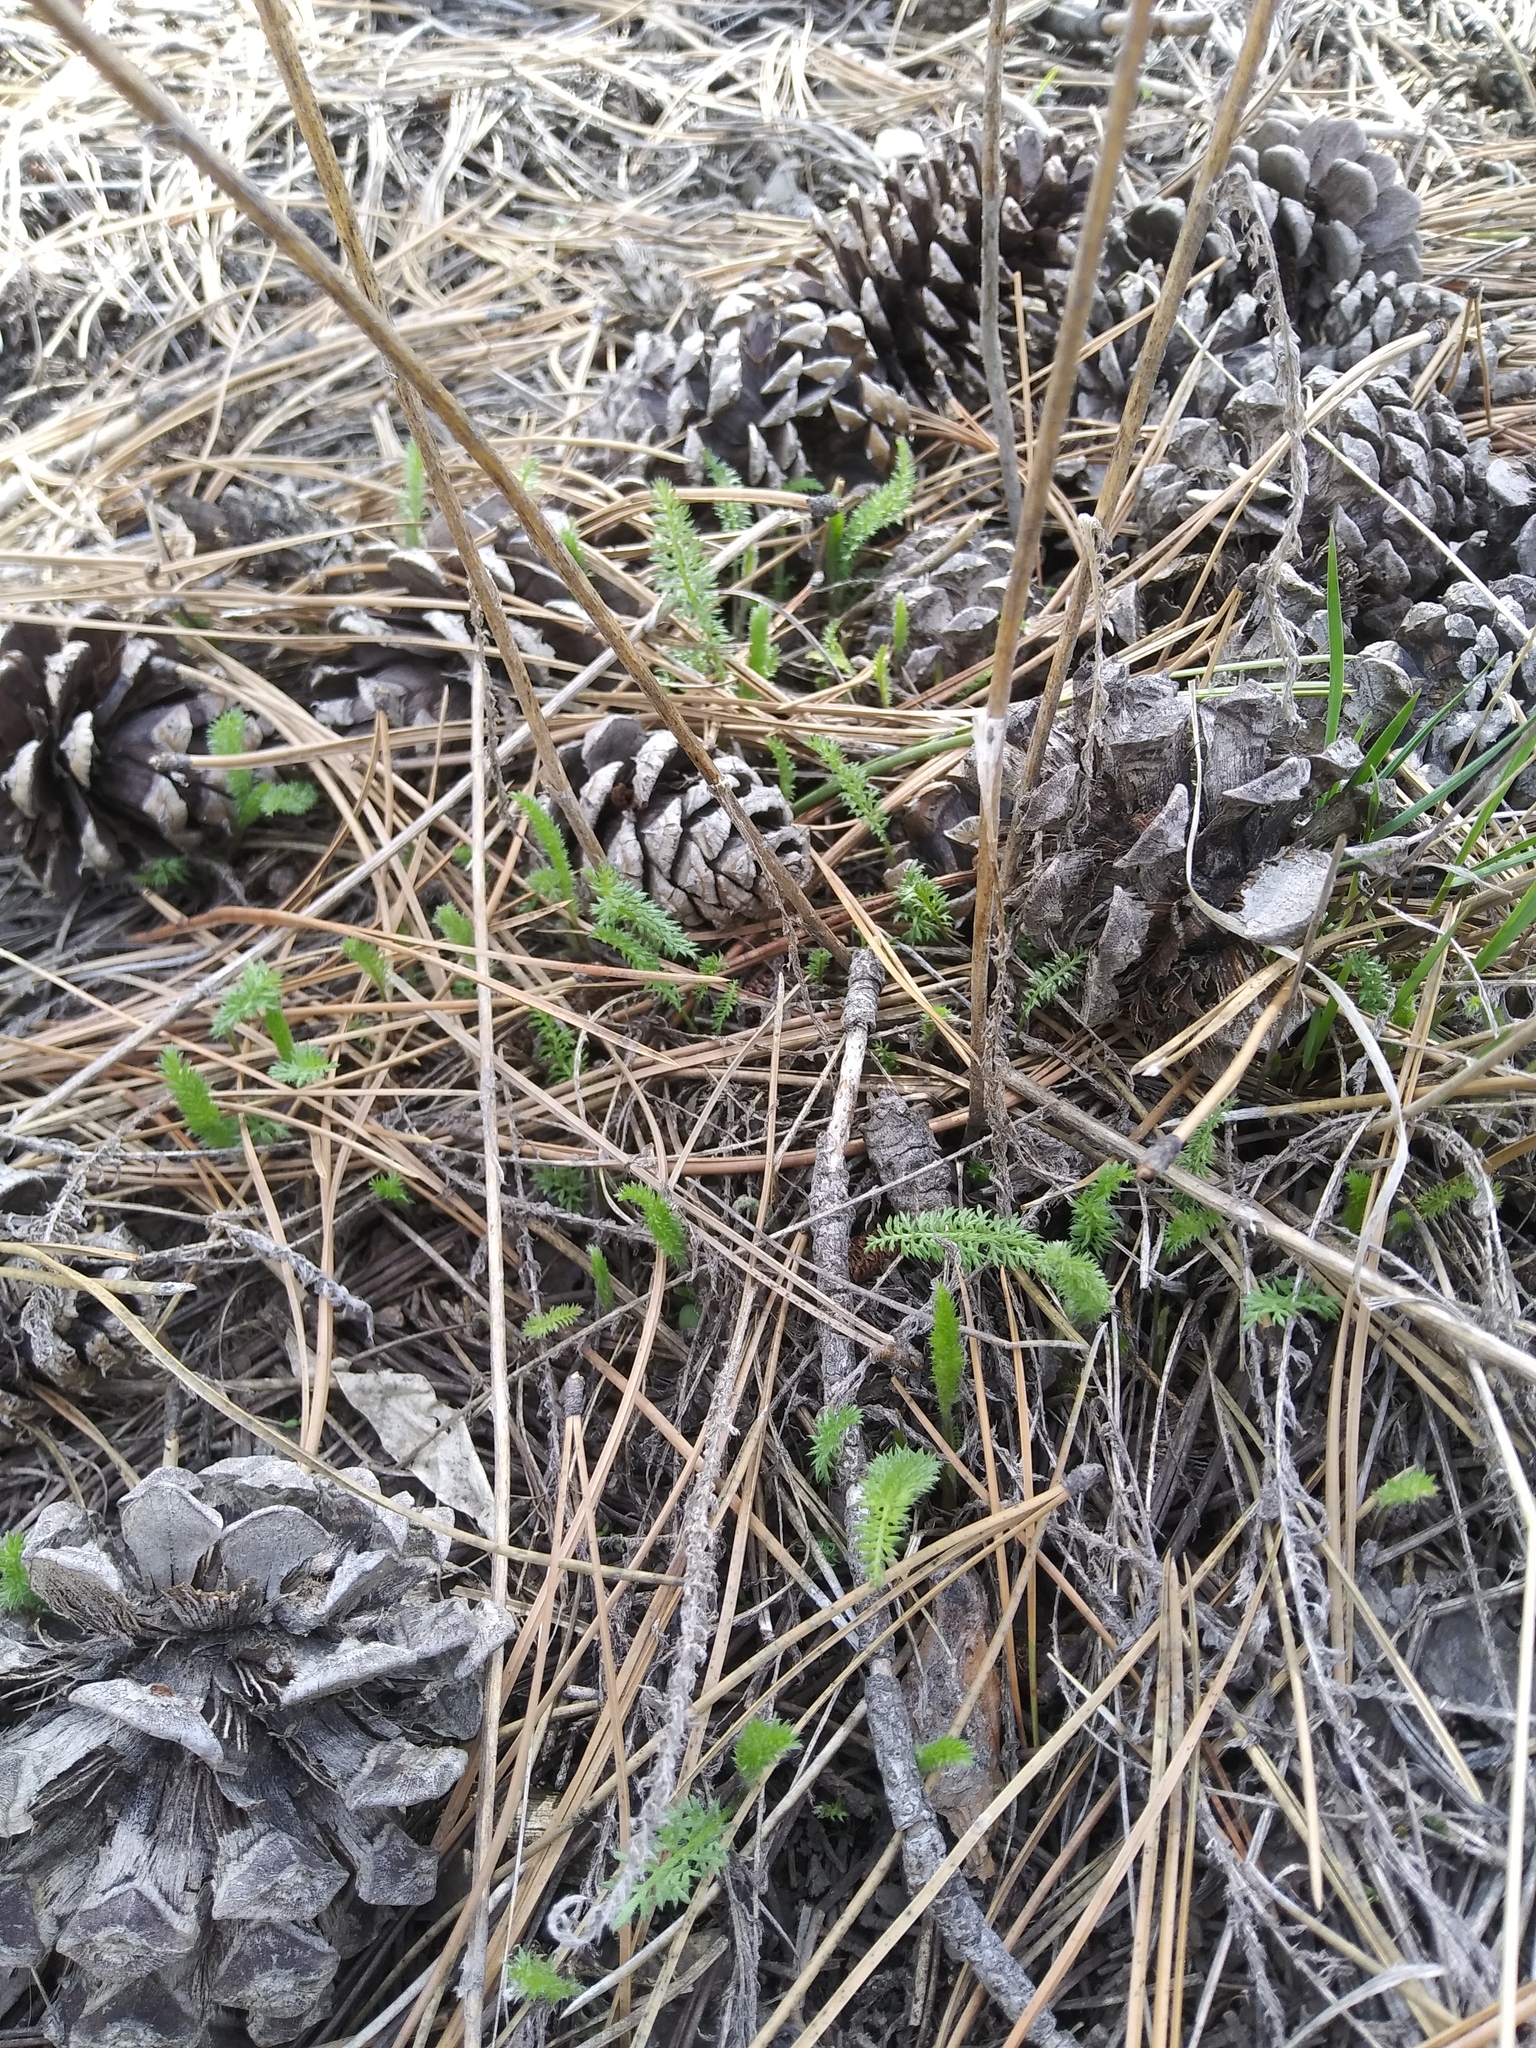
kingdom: Plantae
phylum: Tracheophyta
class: Magnoliopsida
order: Asterales
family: Asteraceae
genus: Achillea
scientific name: Achillea millefolium
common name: Yarrow
